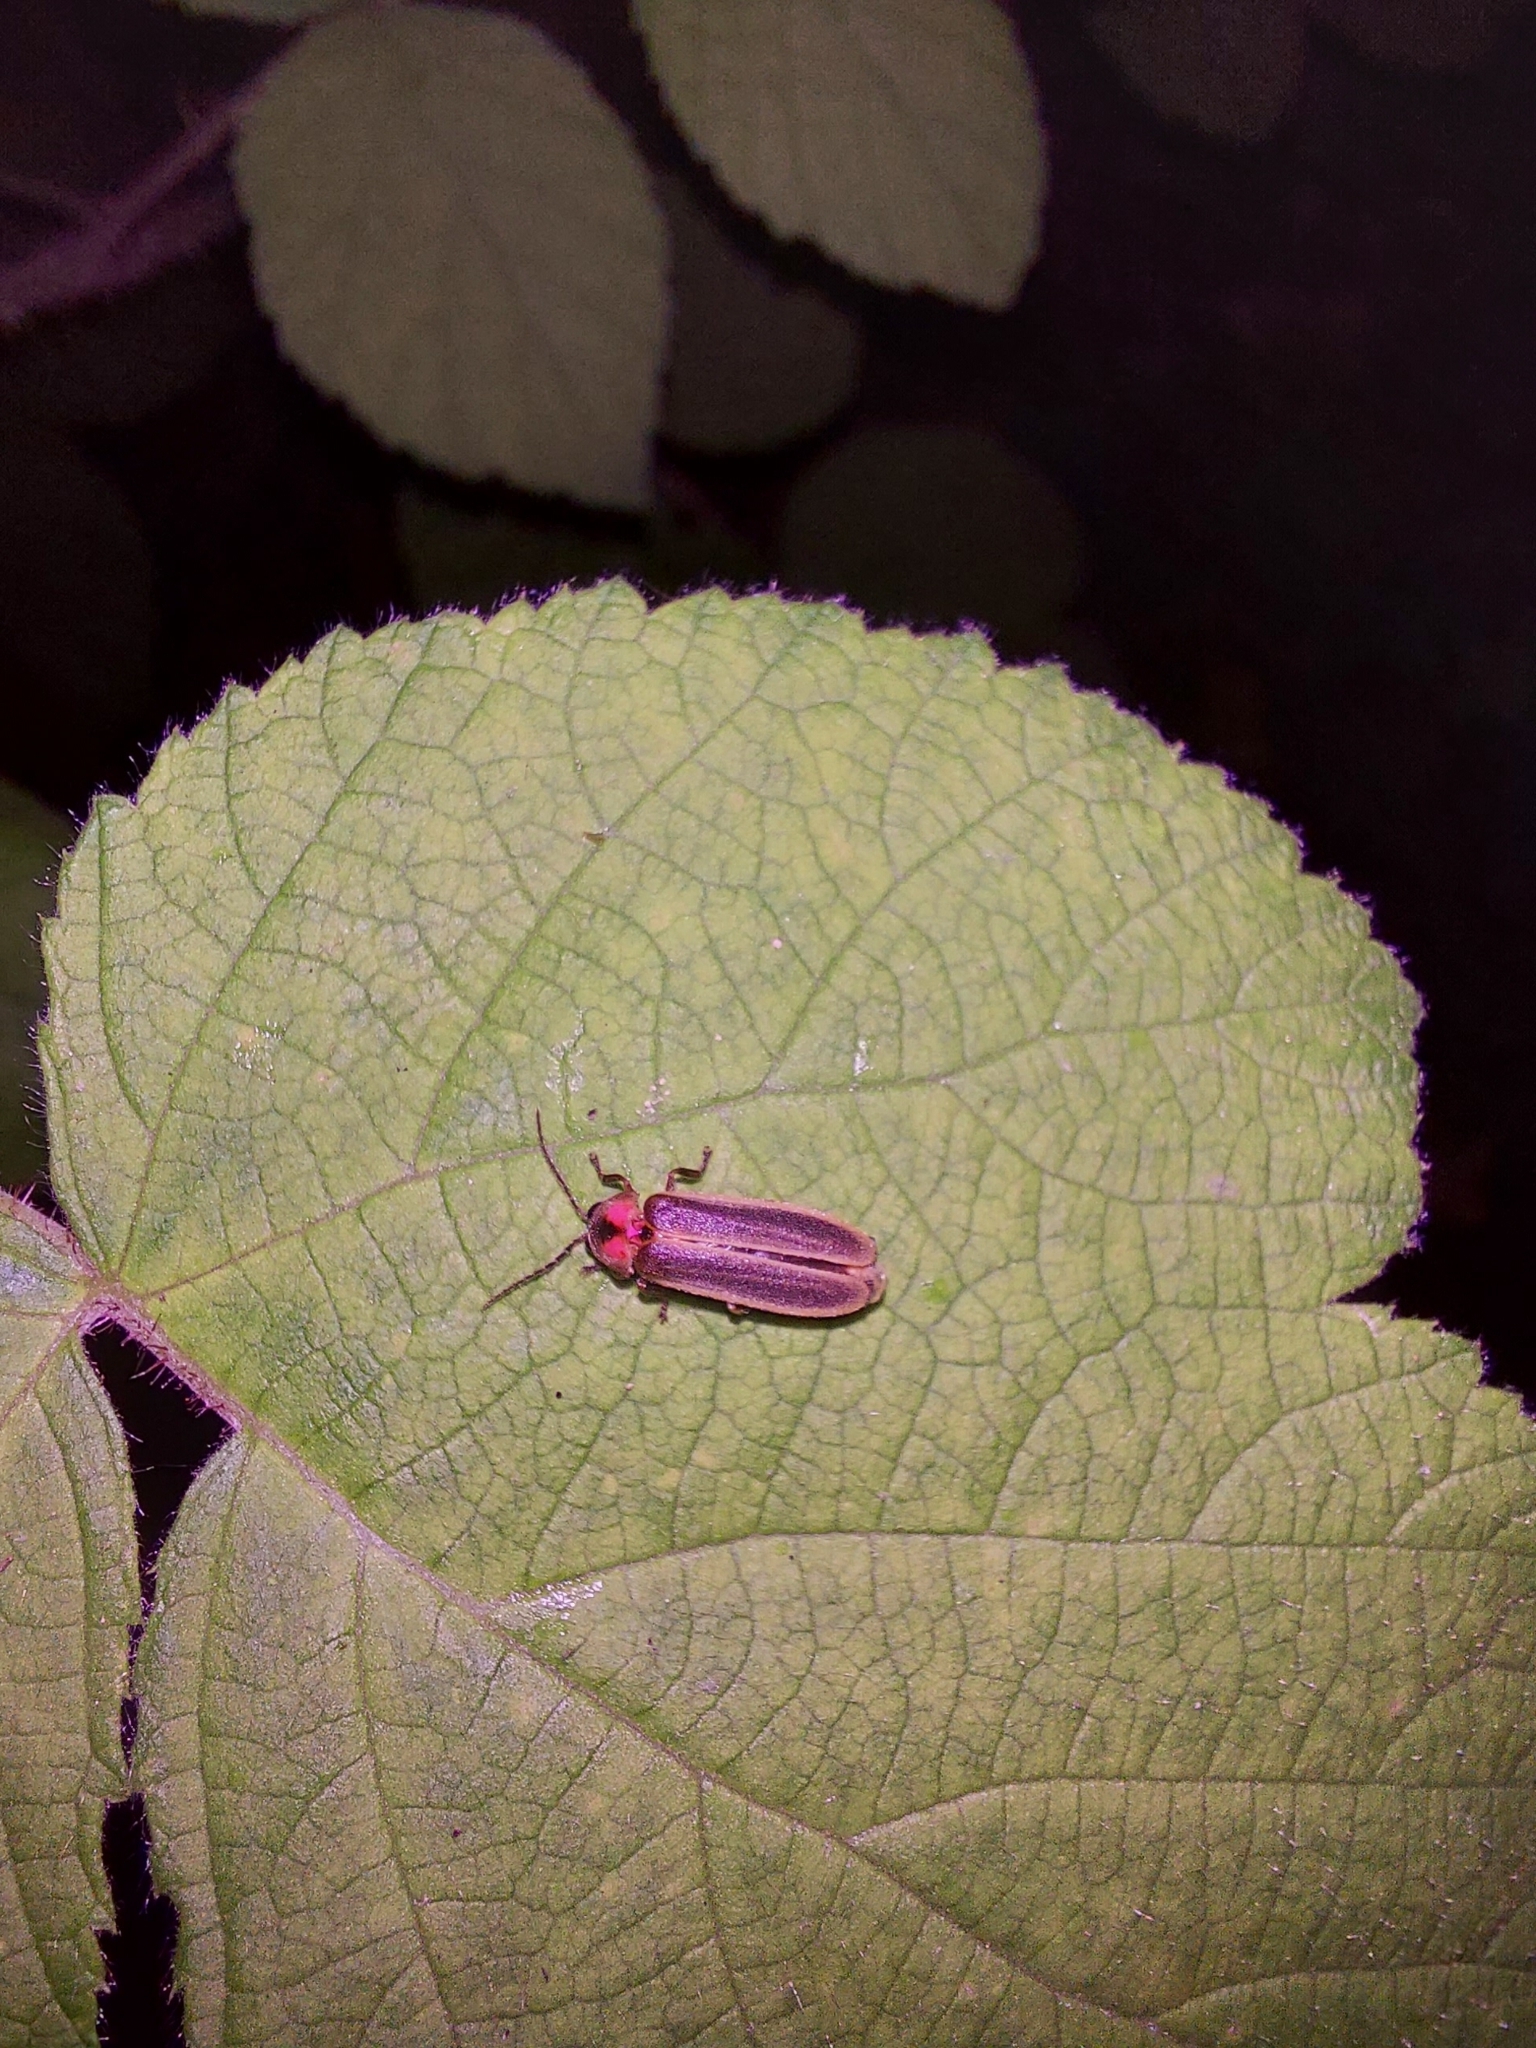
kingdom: Animalia
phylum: Arthropoda
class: Insecta
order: Coleoptera
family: Lampyridae
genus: Photinus
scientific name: Photinus pyralis
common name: Big dipper firefly
